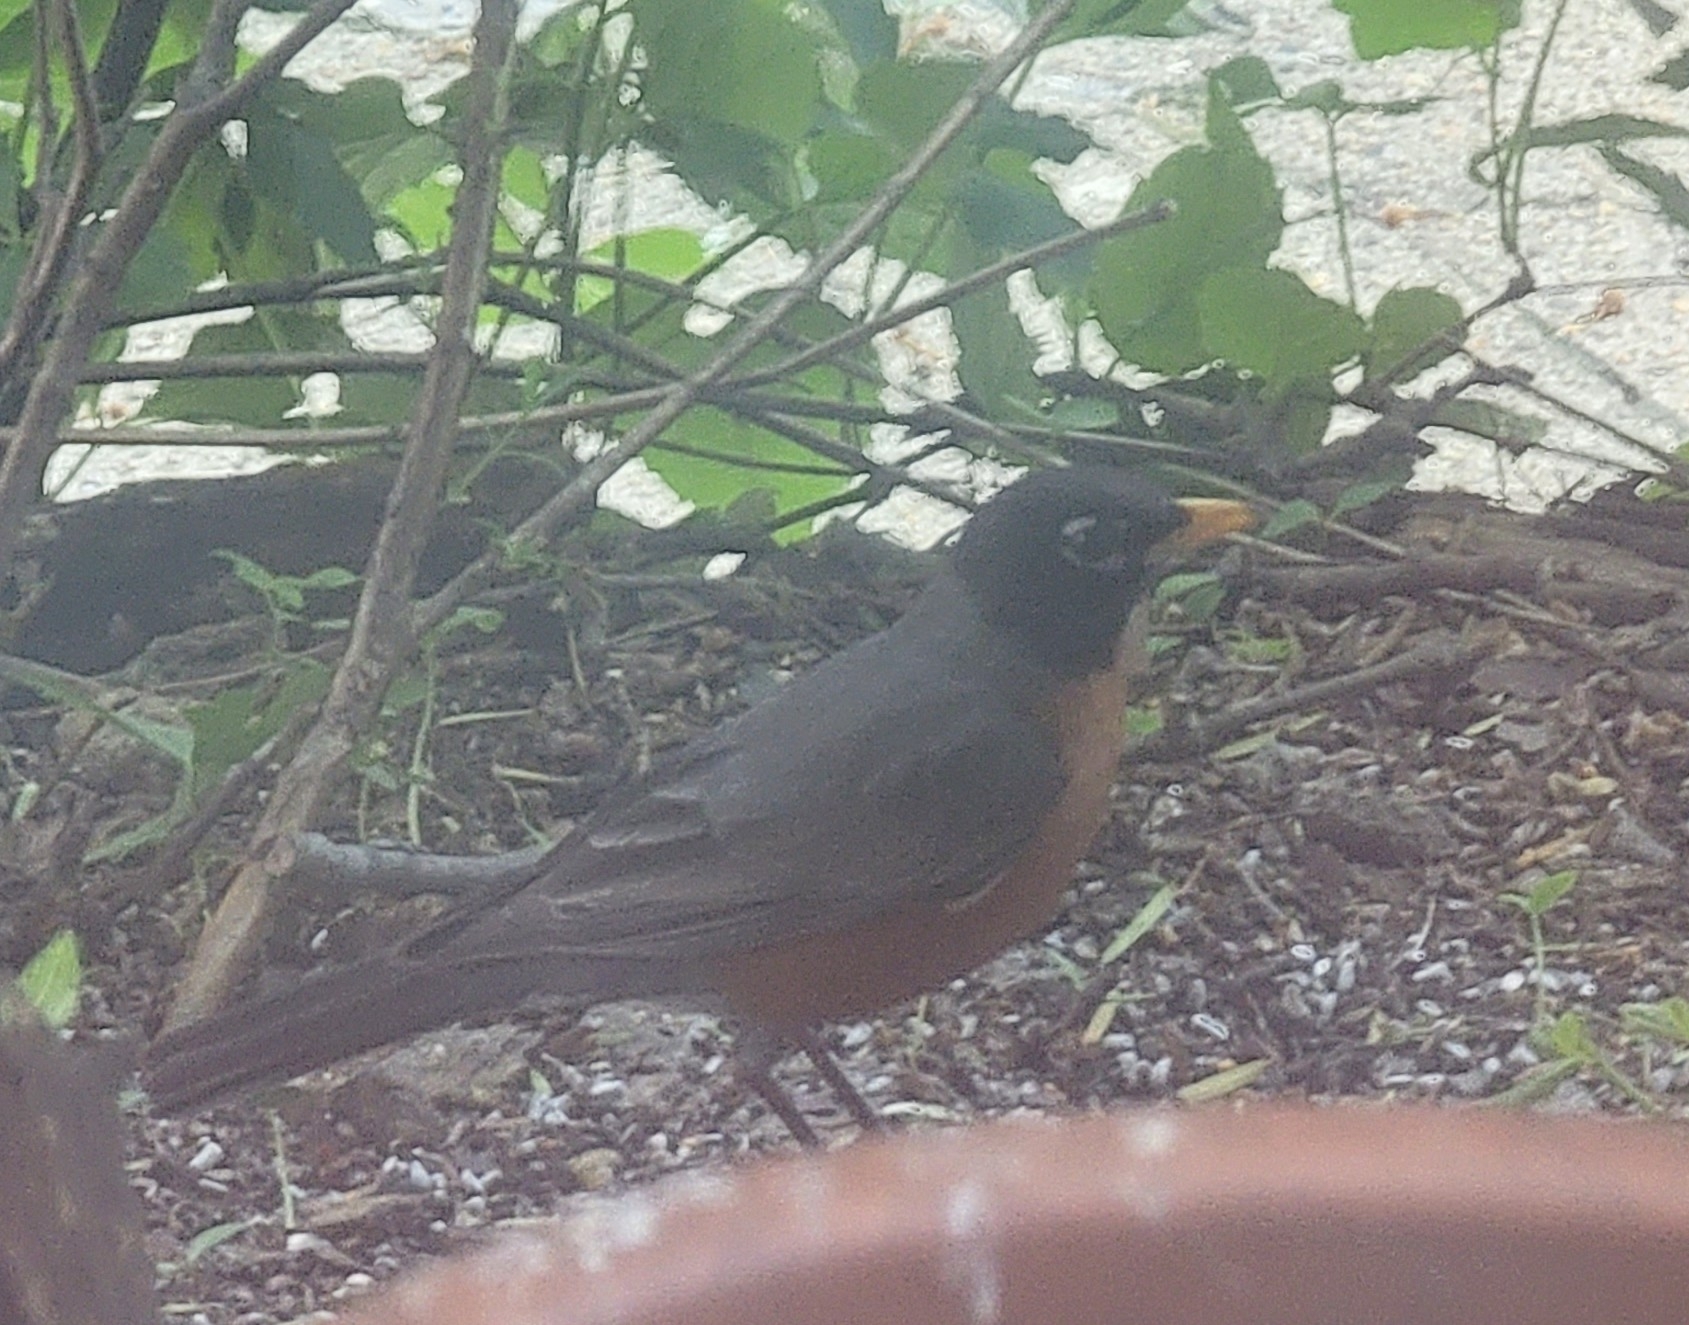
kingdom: Animalia
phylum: Chordata
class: Aves
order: Passeriformes
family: Turdidae
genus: Turdus
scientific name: Turdus migratorius
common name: American robin
